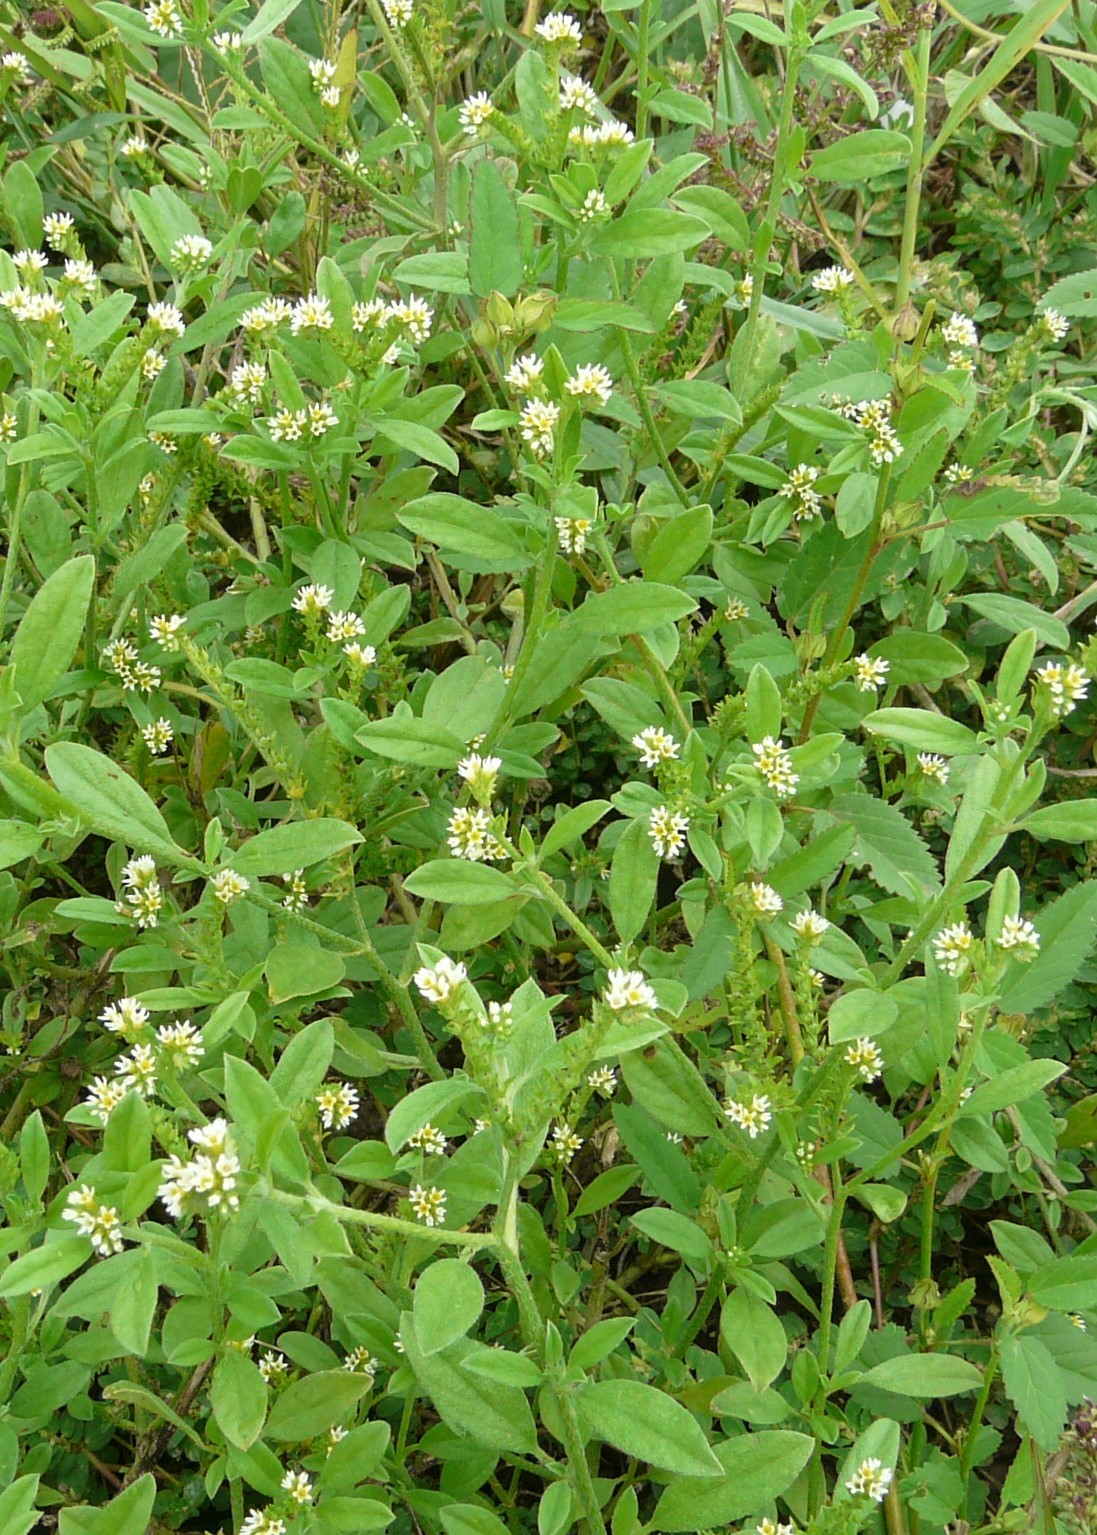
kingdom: Plantae
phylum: Tracheophyta
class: Magnoliopsida
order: Boraginales
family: Heliotropiaceae
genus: Euploca
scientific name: Euploca procumbens
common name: Fourspike heliotrope
